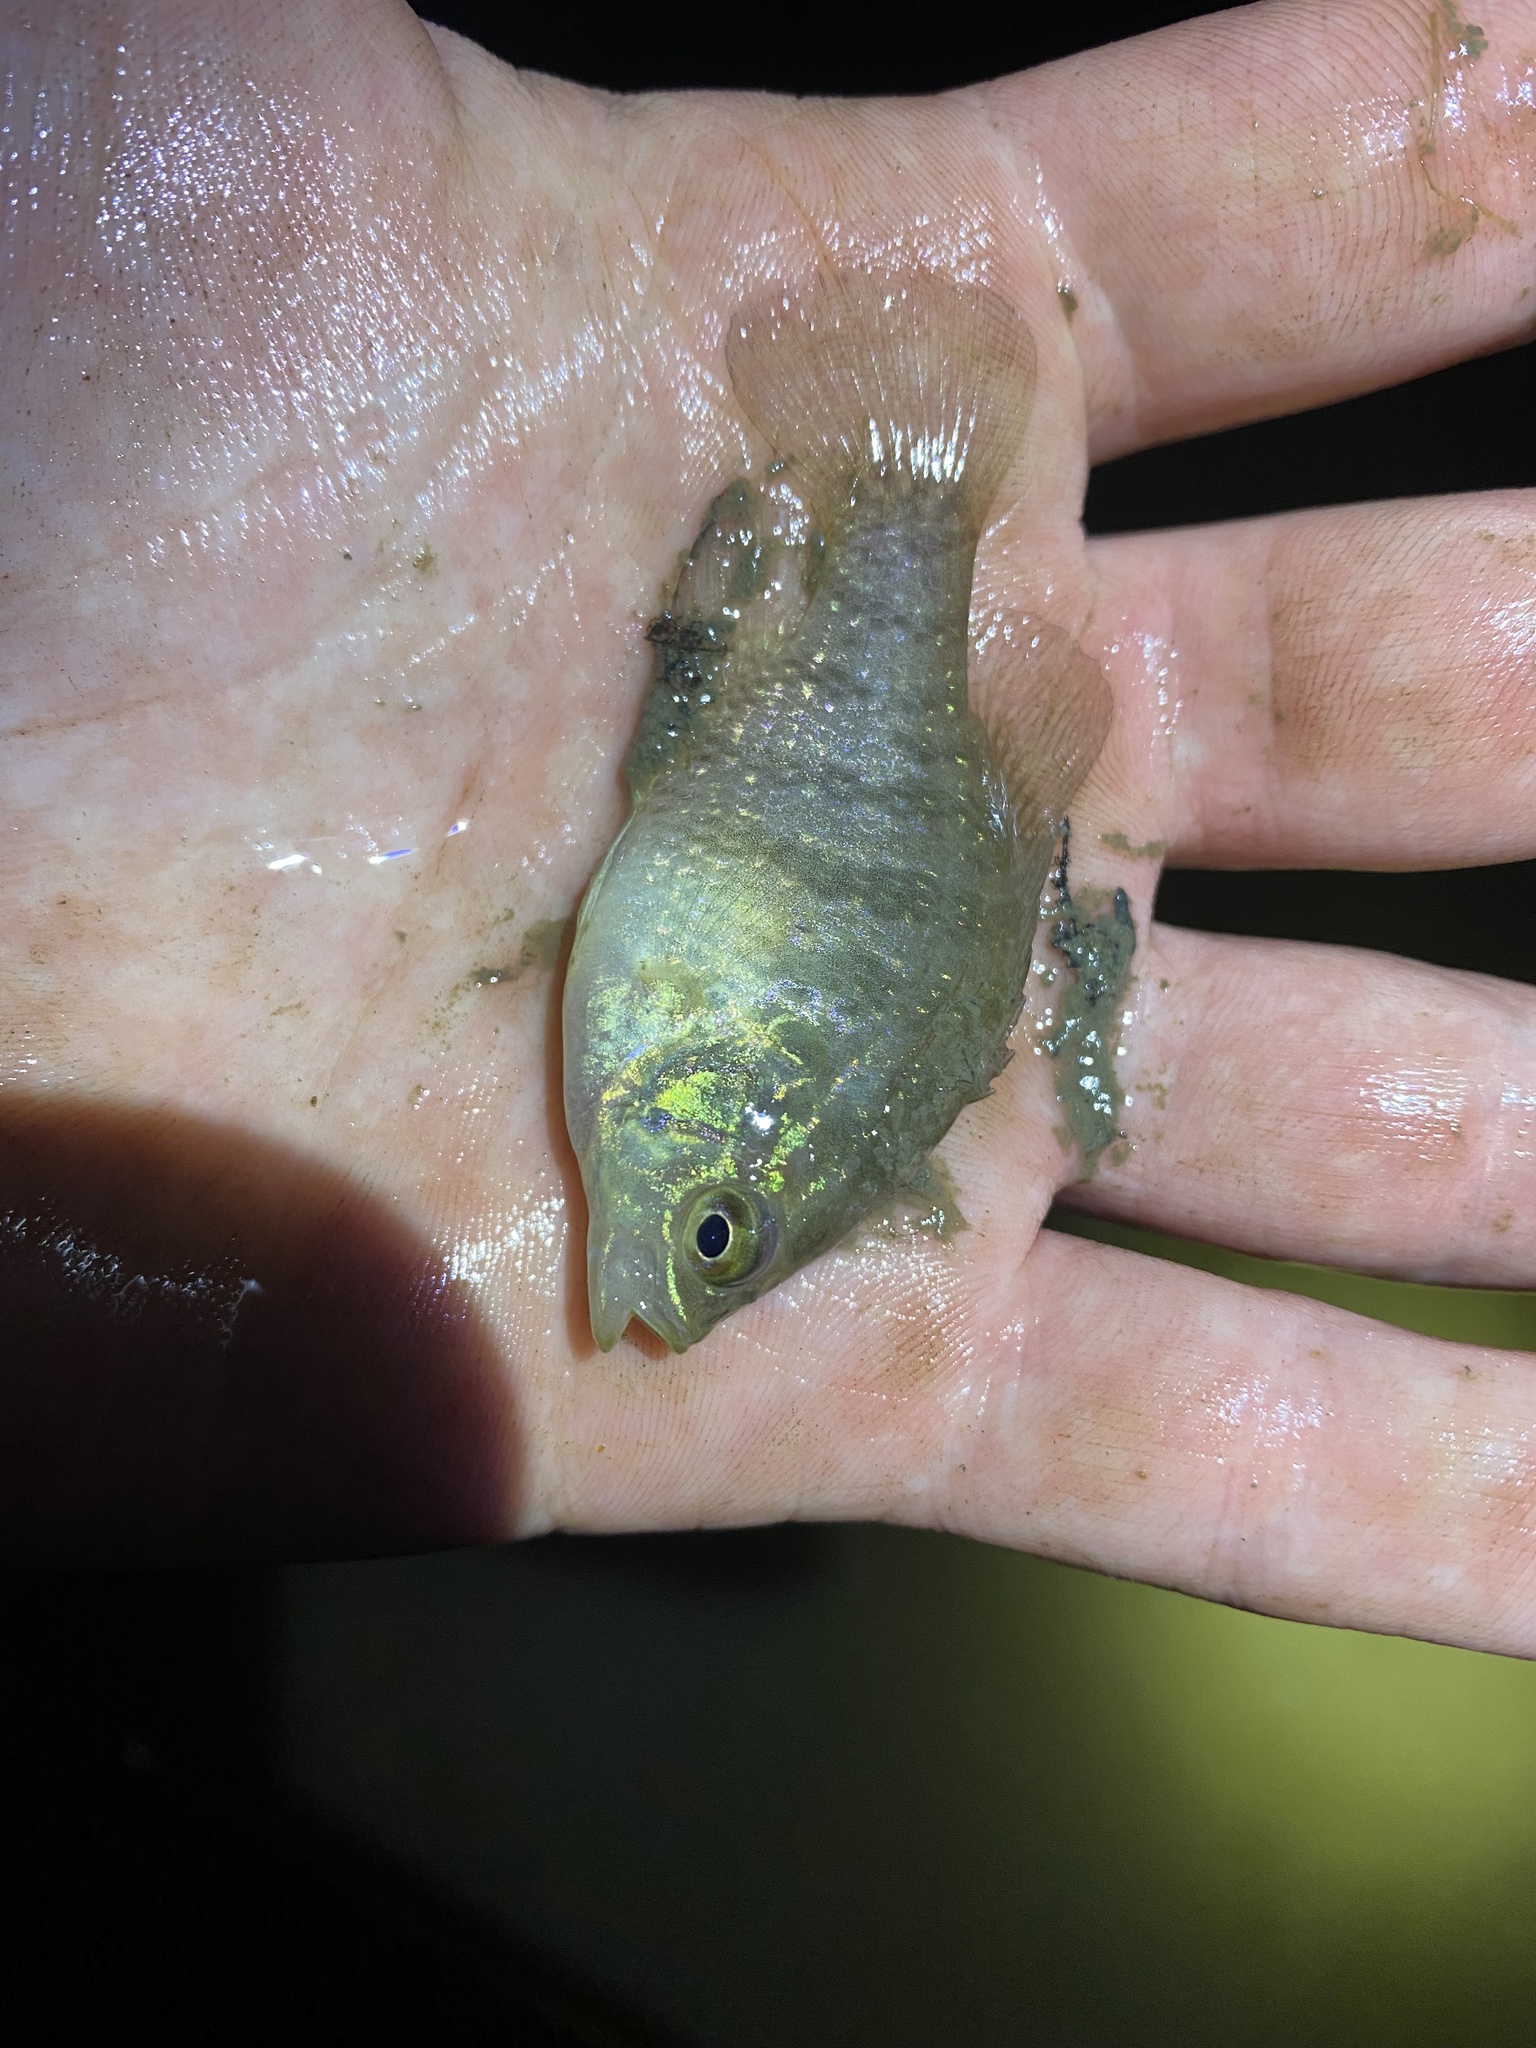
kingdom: Animalia
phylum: Chordata
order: Perciformes
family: Centrarchidae
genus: Enneacanthus
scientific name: Enneacanthus obesus
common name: Banded sunfish
